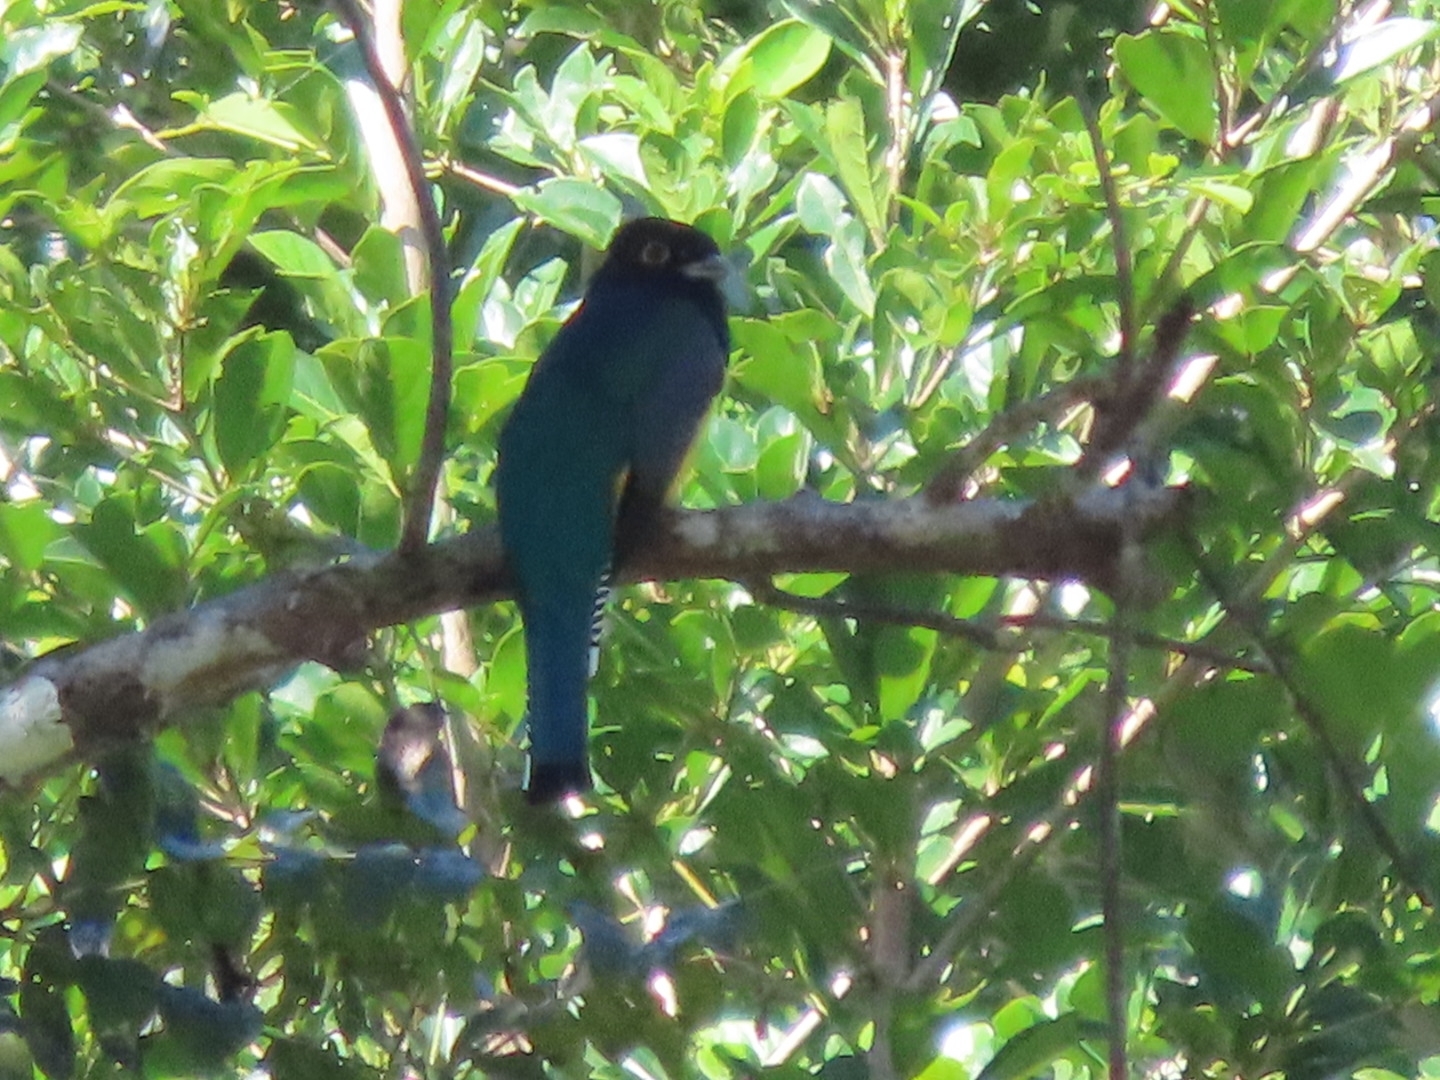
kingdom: Animalia
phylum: Chordata
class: Aves
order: Trogoniformes
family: Trogonidae
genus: Trogon
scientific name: Trogon caligatus
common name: Gartered trogon
